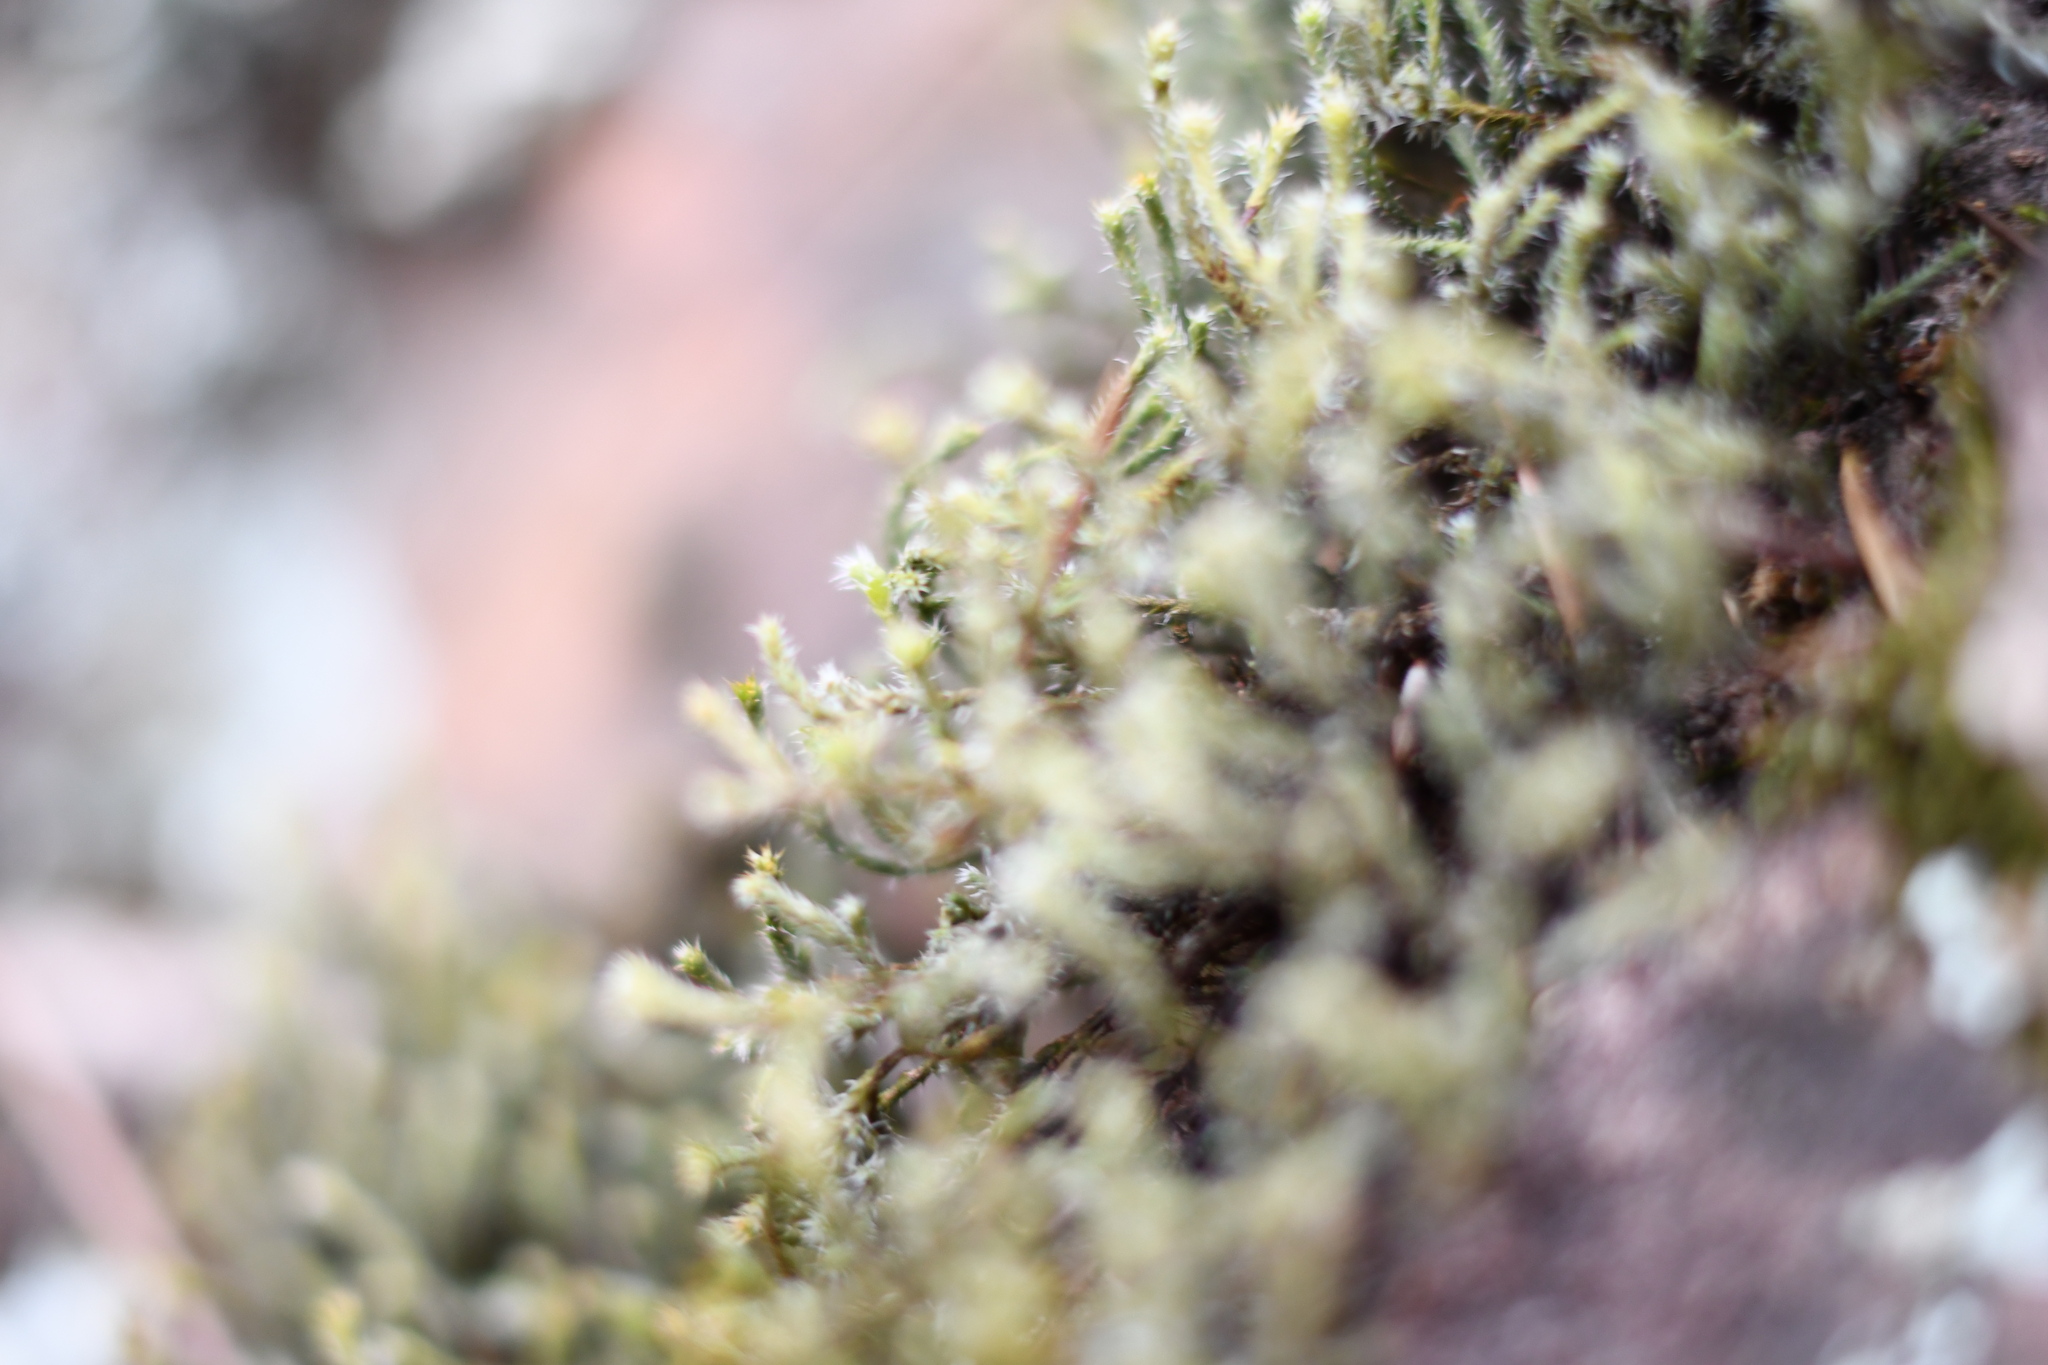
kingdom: Plantae
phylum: Bryophyta
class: Bryopsida
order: Hedwigiales
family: Hedwigiaceae
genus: Hedwigia
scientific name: Hedwigia ciliata
